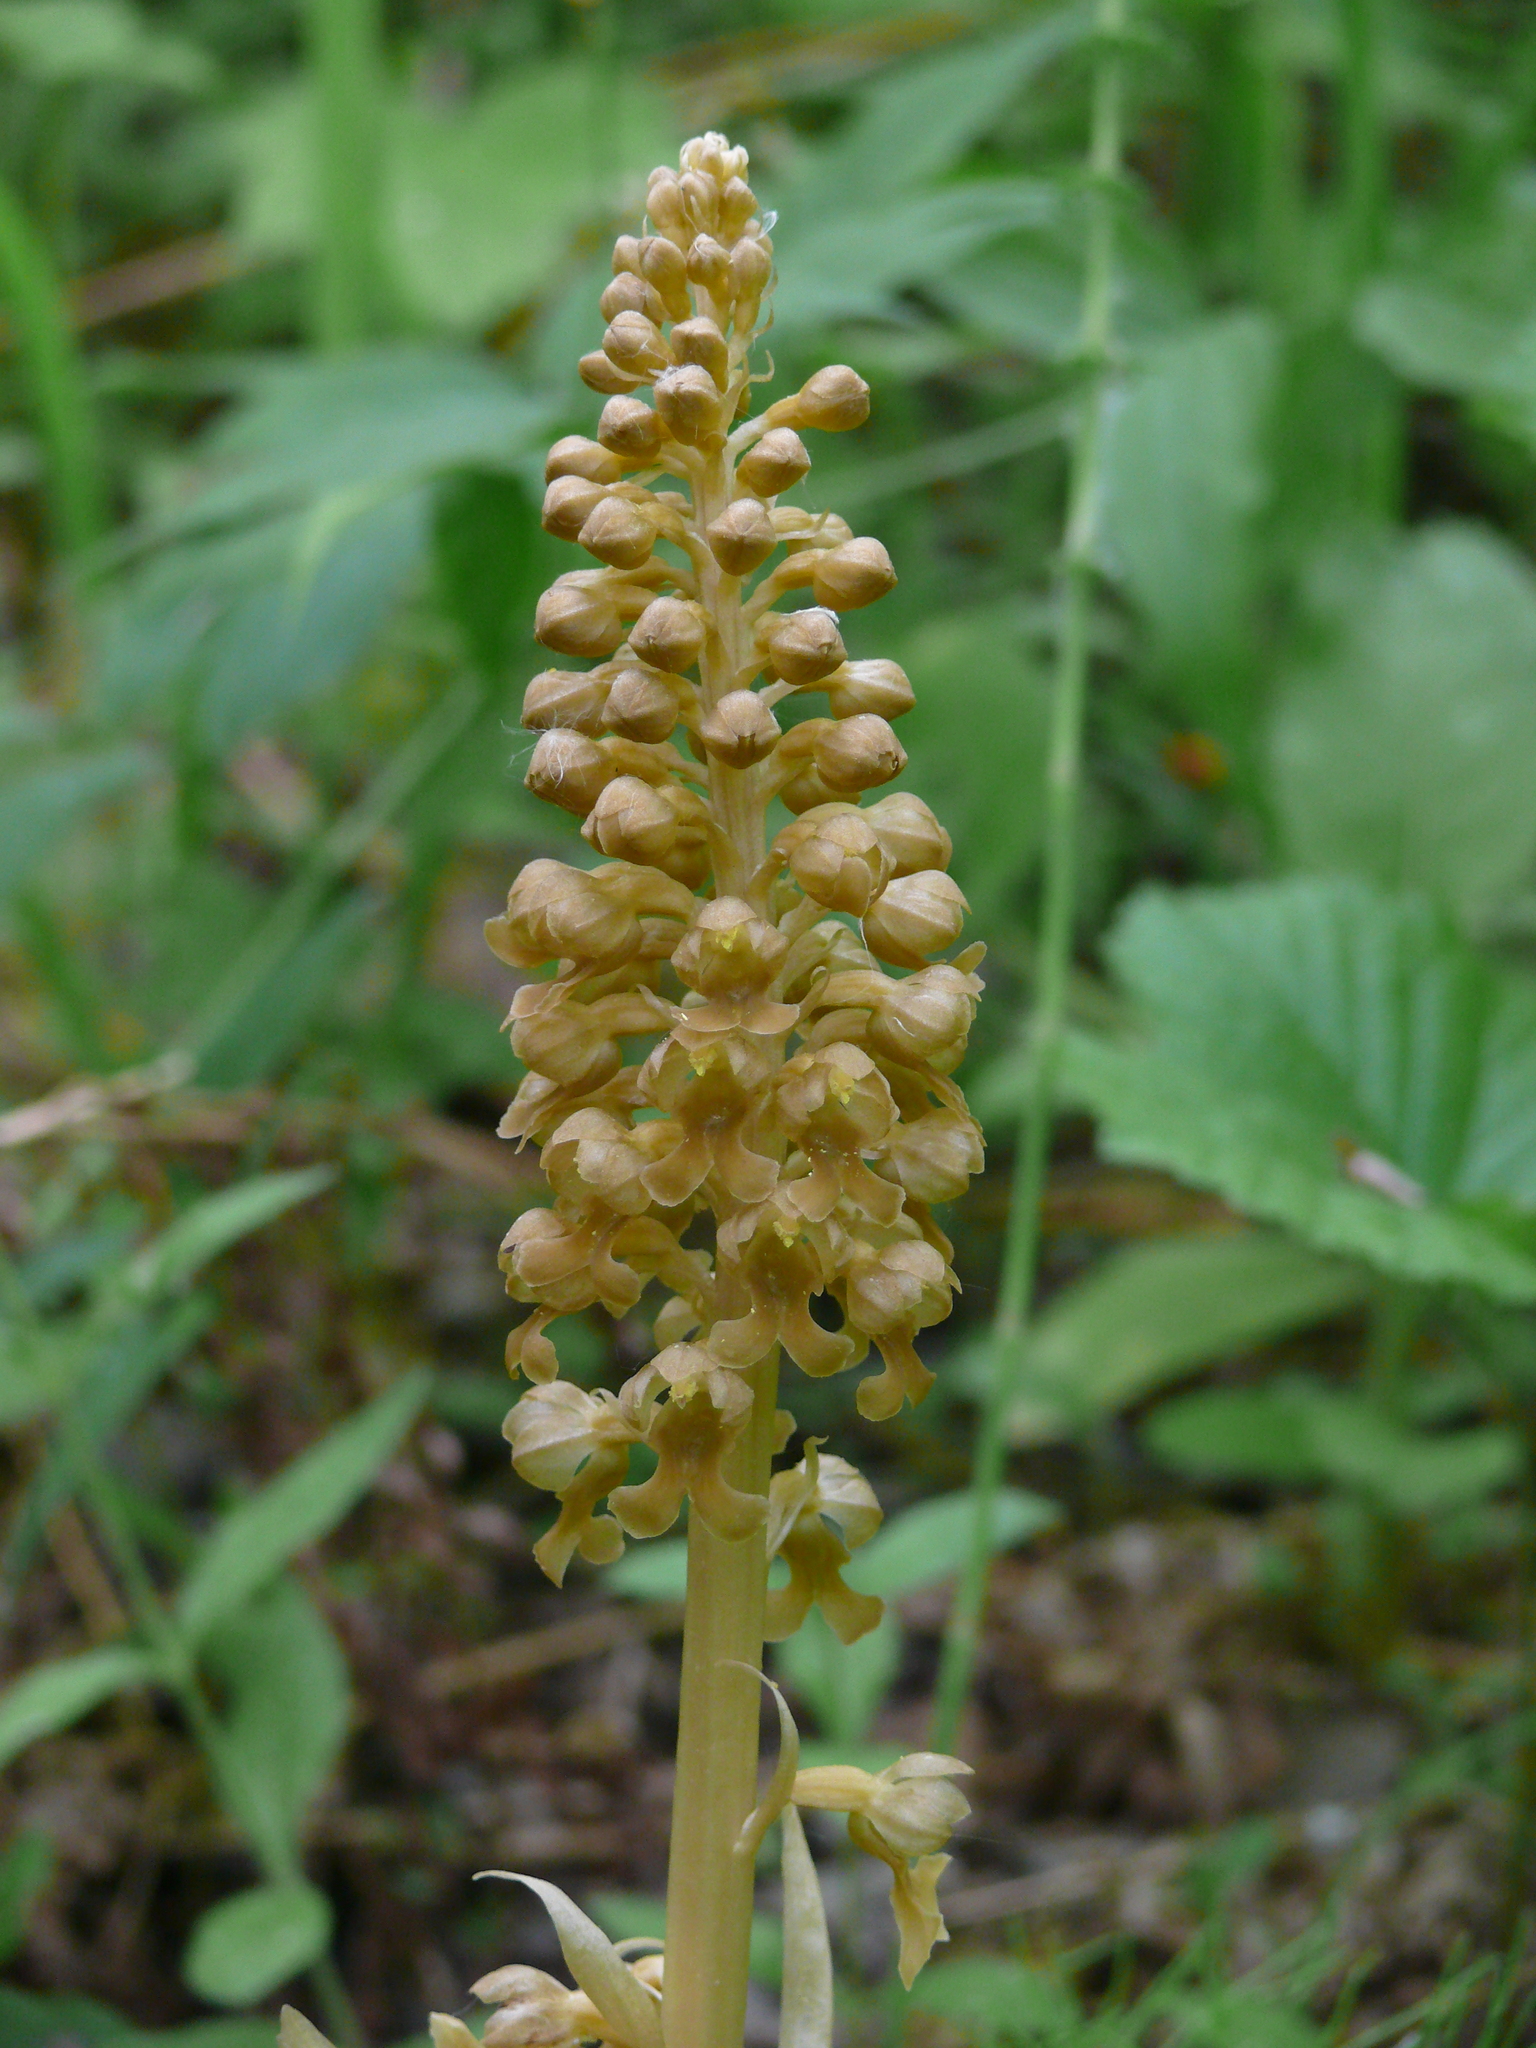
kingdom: Plantae
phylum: Tracheophyta
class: Liliopsida
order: Asparagales
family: Orchidaceae
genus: Neottia
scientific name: Neottia nidus-avis
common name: Bird's-nest orchid
